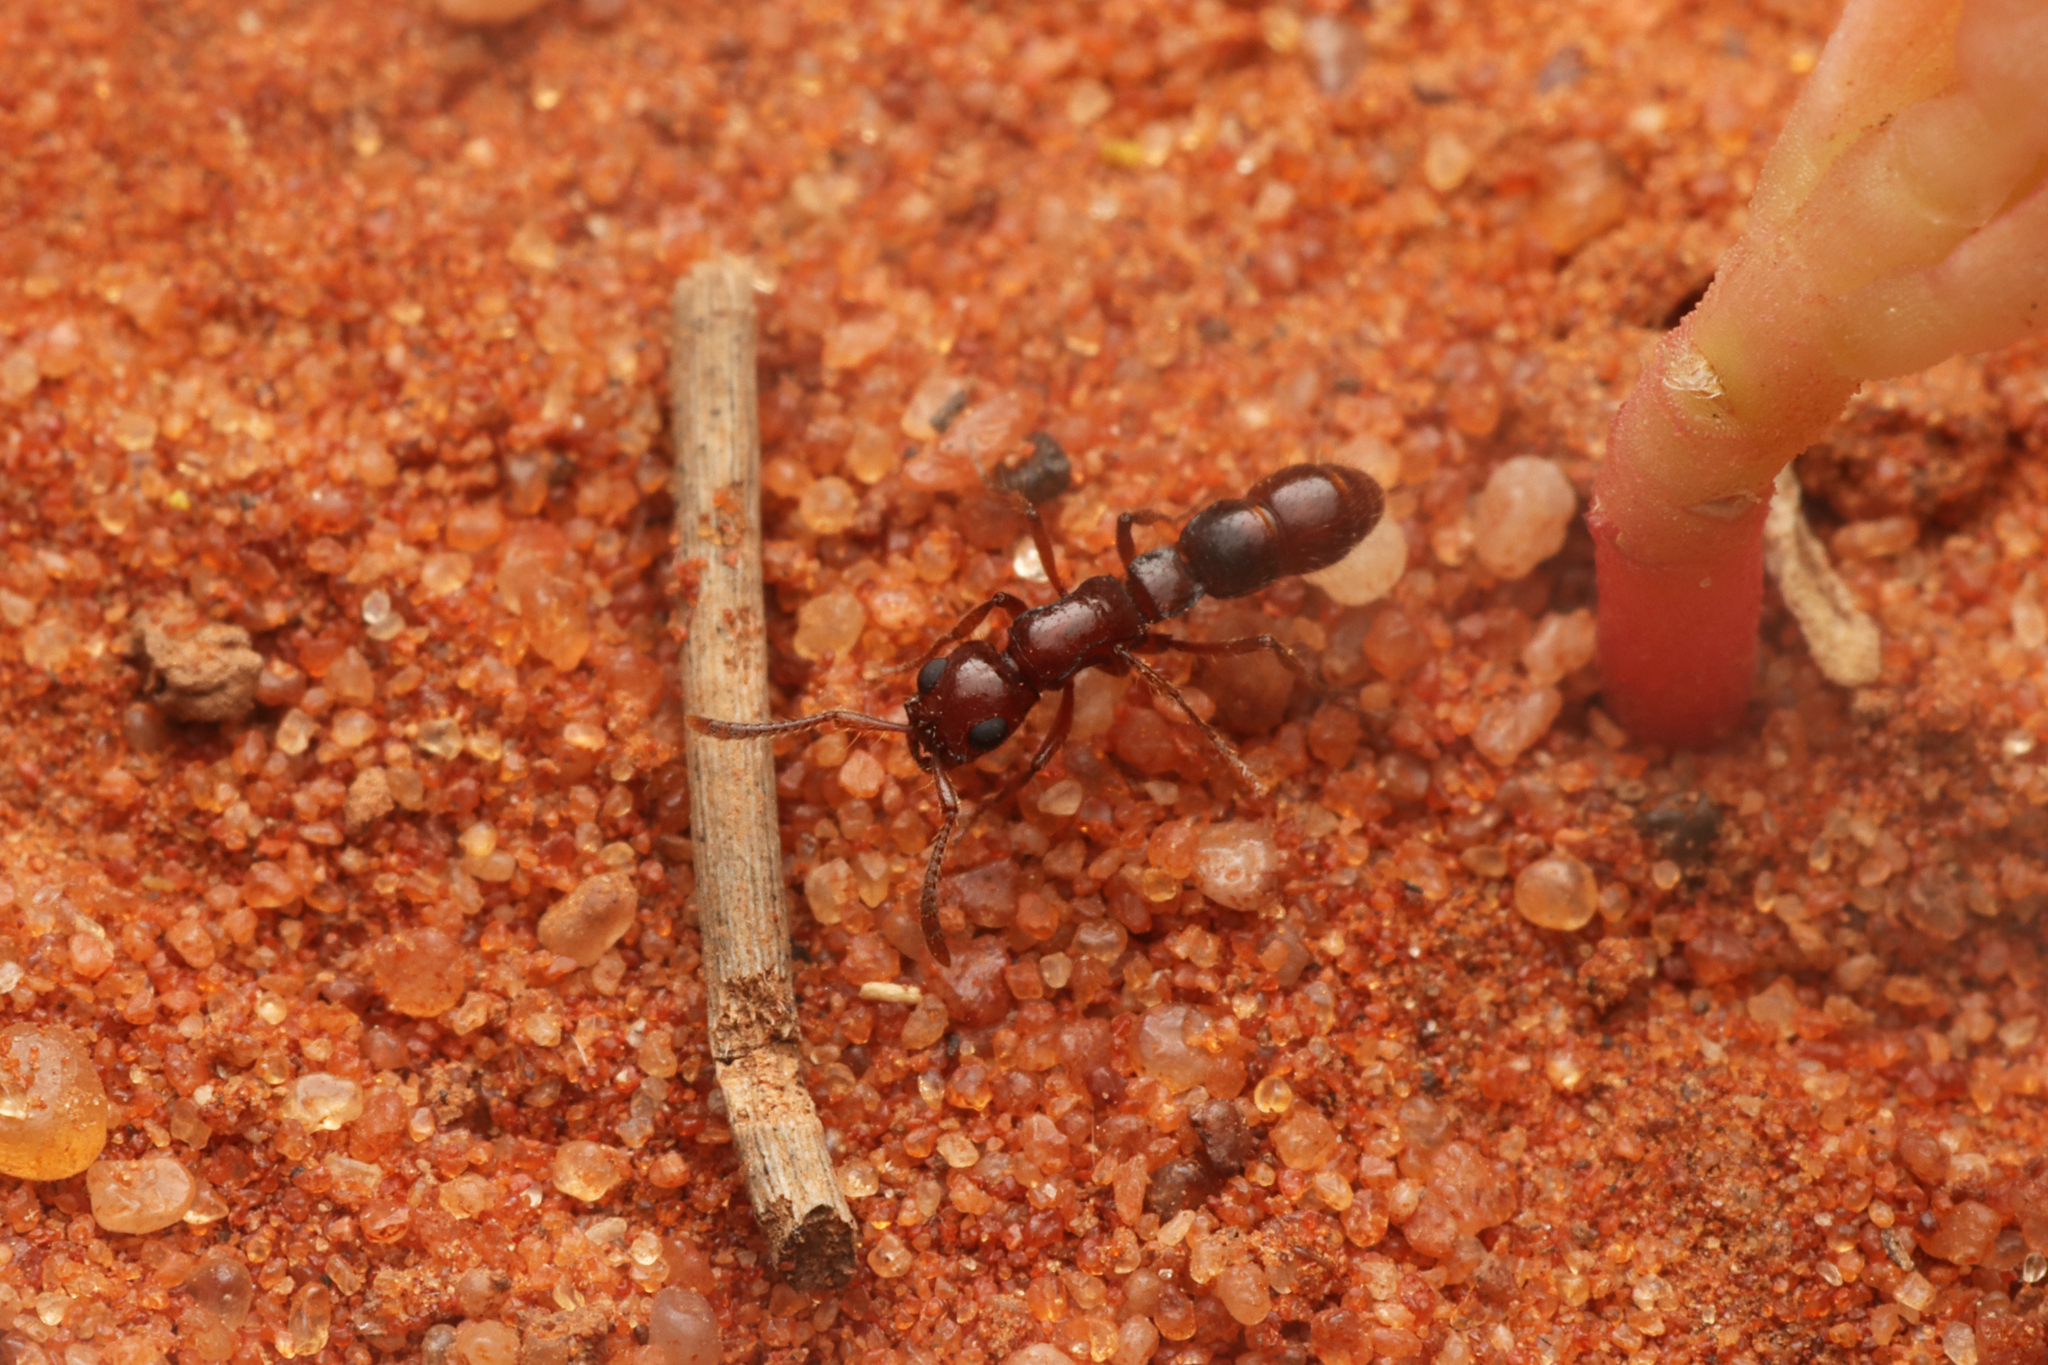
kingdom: Animalia
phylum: Arthropoda
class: Insecta
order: Hymenoptera
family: Formicidae
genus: Lioponera
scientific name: Lioponera
